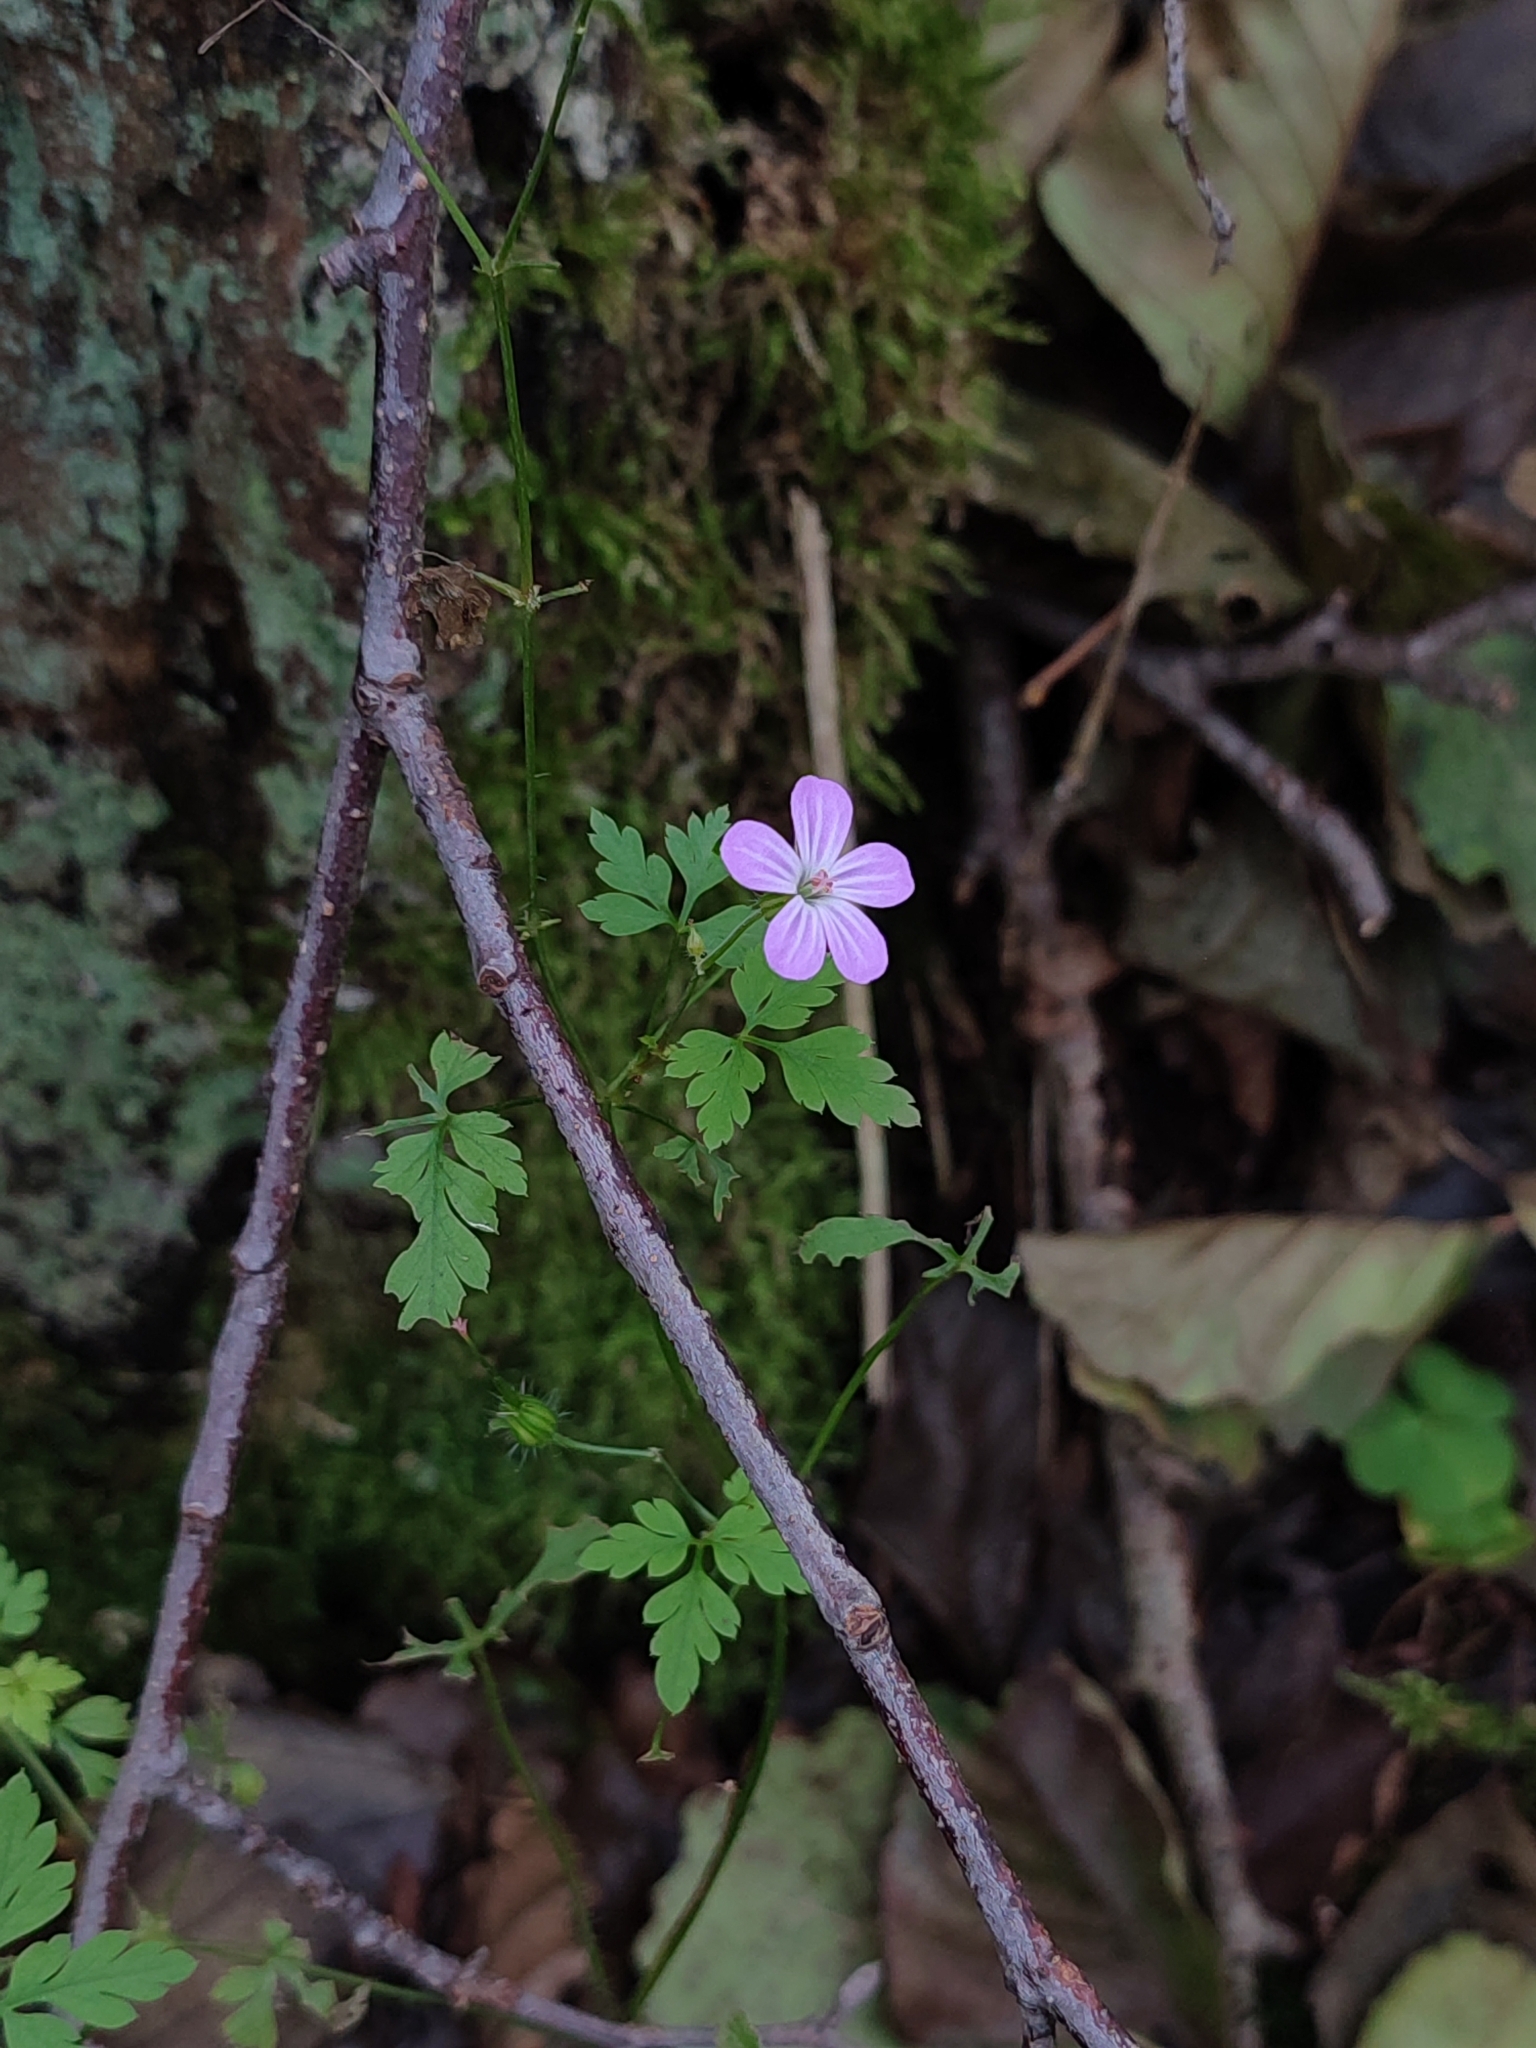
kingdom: Plantae
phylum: Tracheophyta
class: Magnoliopsida
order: Geraniales
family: Geraniaceae
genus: Geranium
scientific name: Geranium robertianum
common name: Herb-robert
